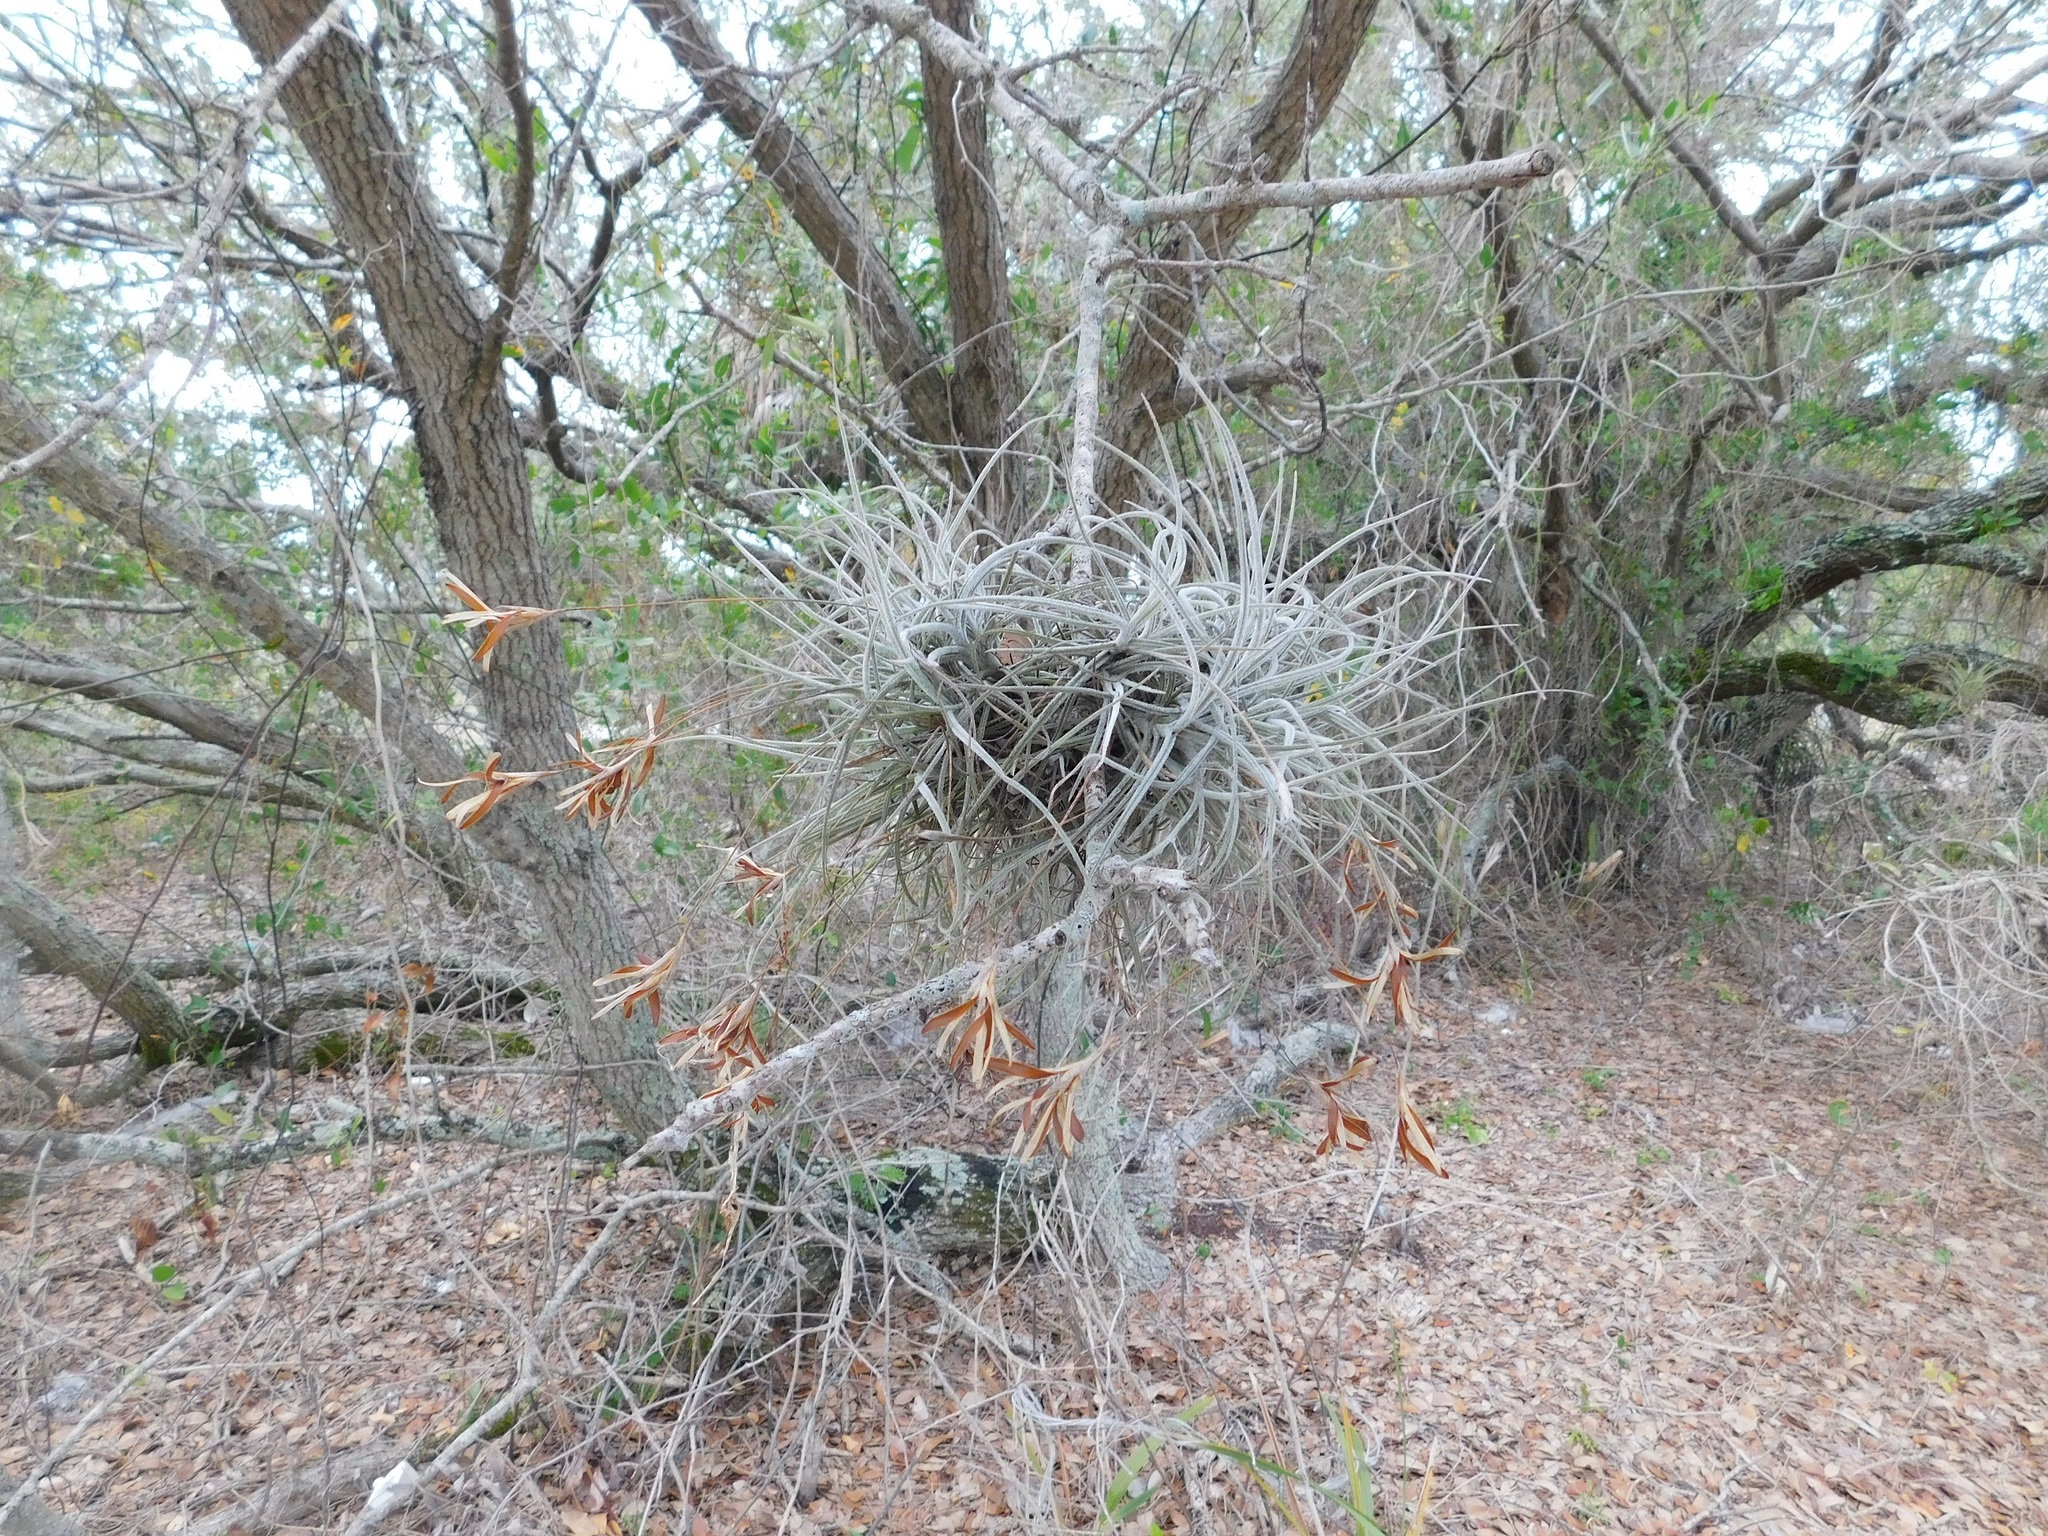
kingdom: Plantae
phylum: Tracheophyta
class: Liliopsida
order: Poales
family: Bromeliaceae
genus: Tillandsia
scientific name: Tillandsia recurvata
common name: Small ballmoss
